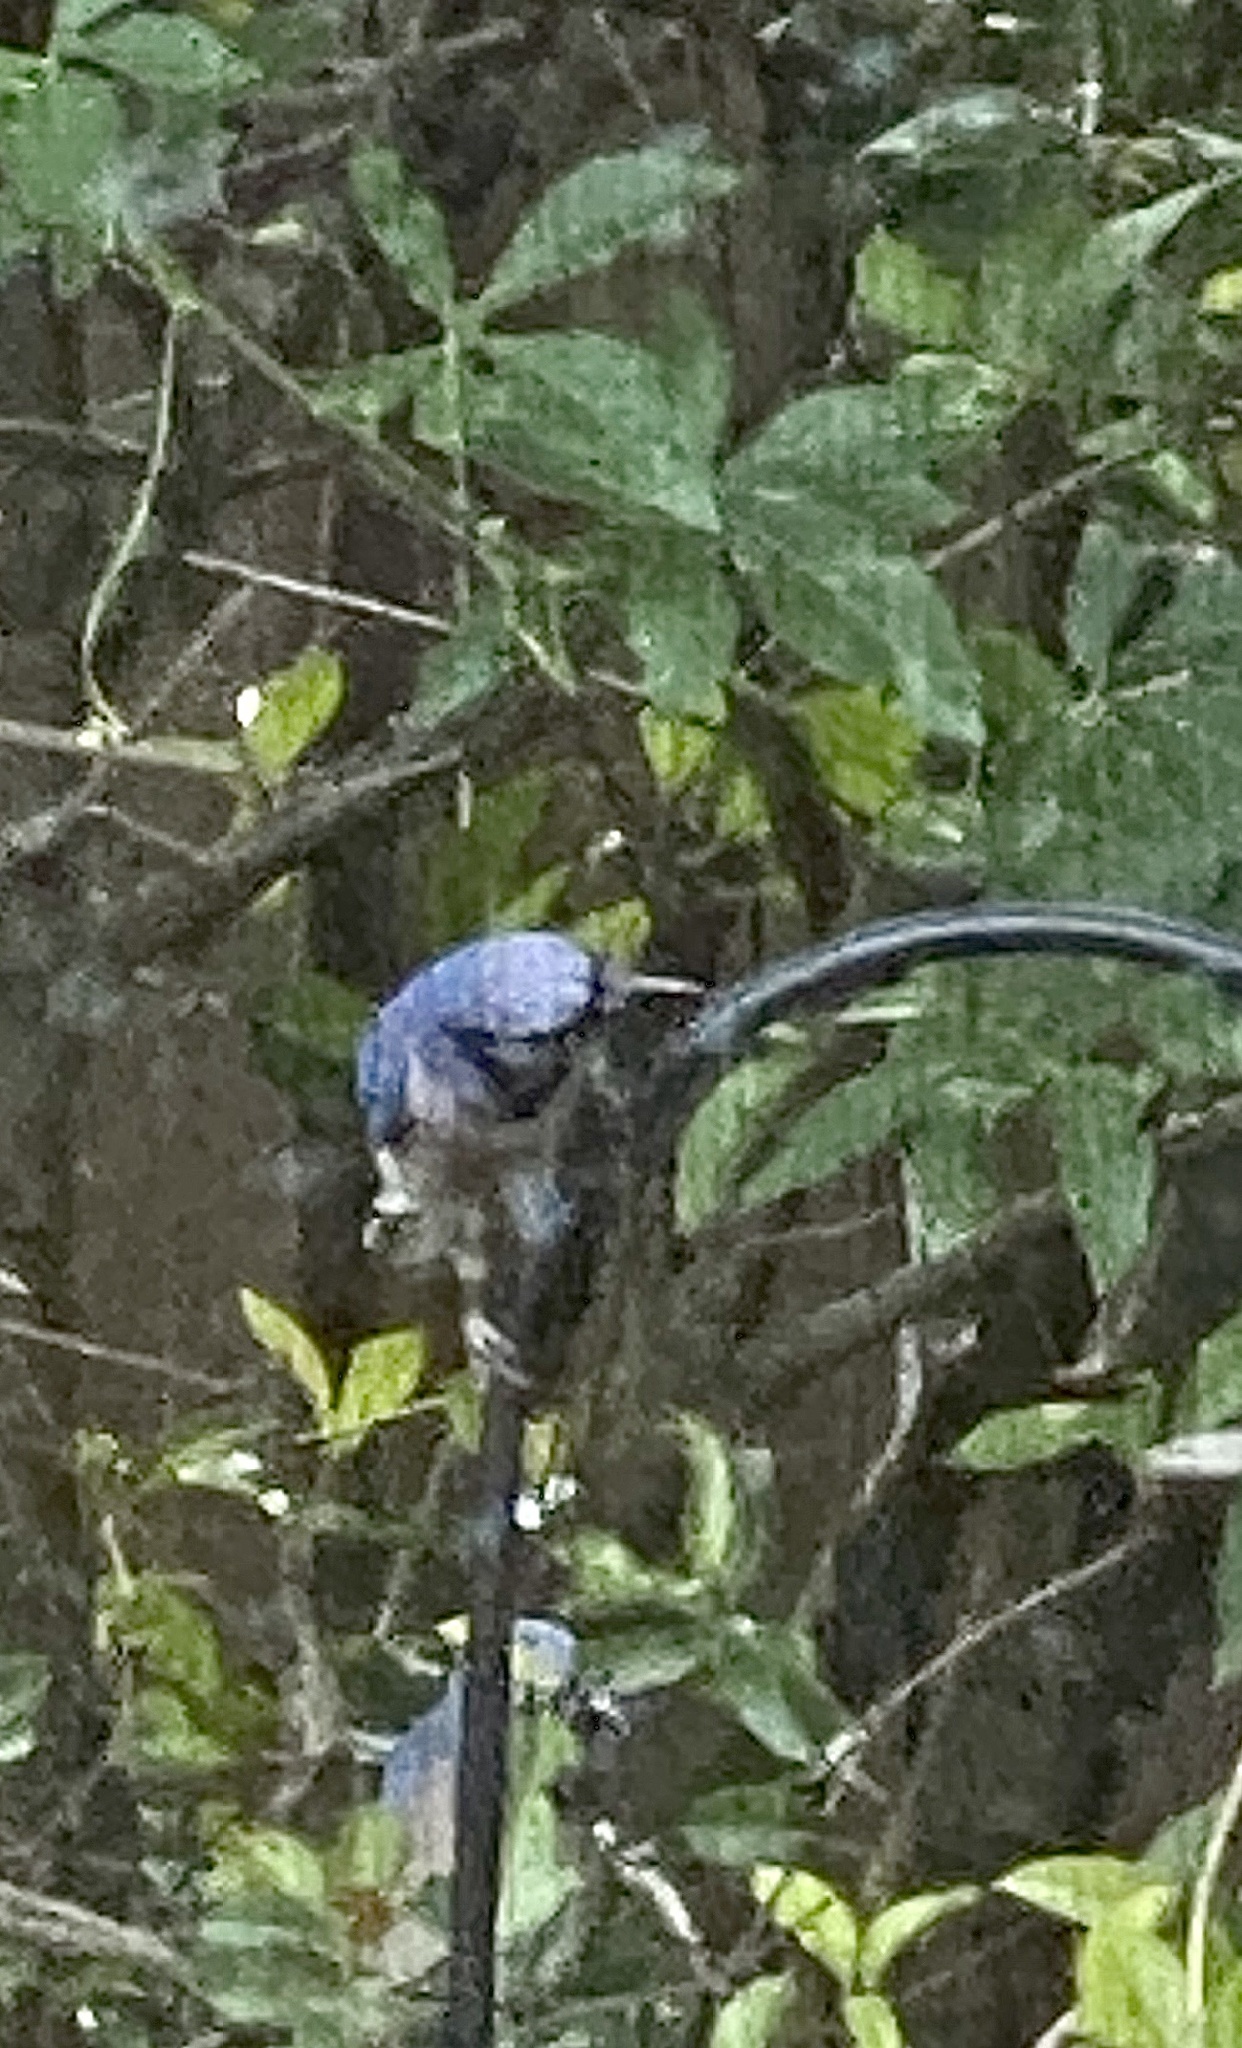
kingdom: Animalia
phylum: Chordata
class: Aves
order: Passeriformes
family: Corvidae
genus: Cyanocitta
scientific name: Cyanocitta cristata
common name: Blue jay
